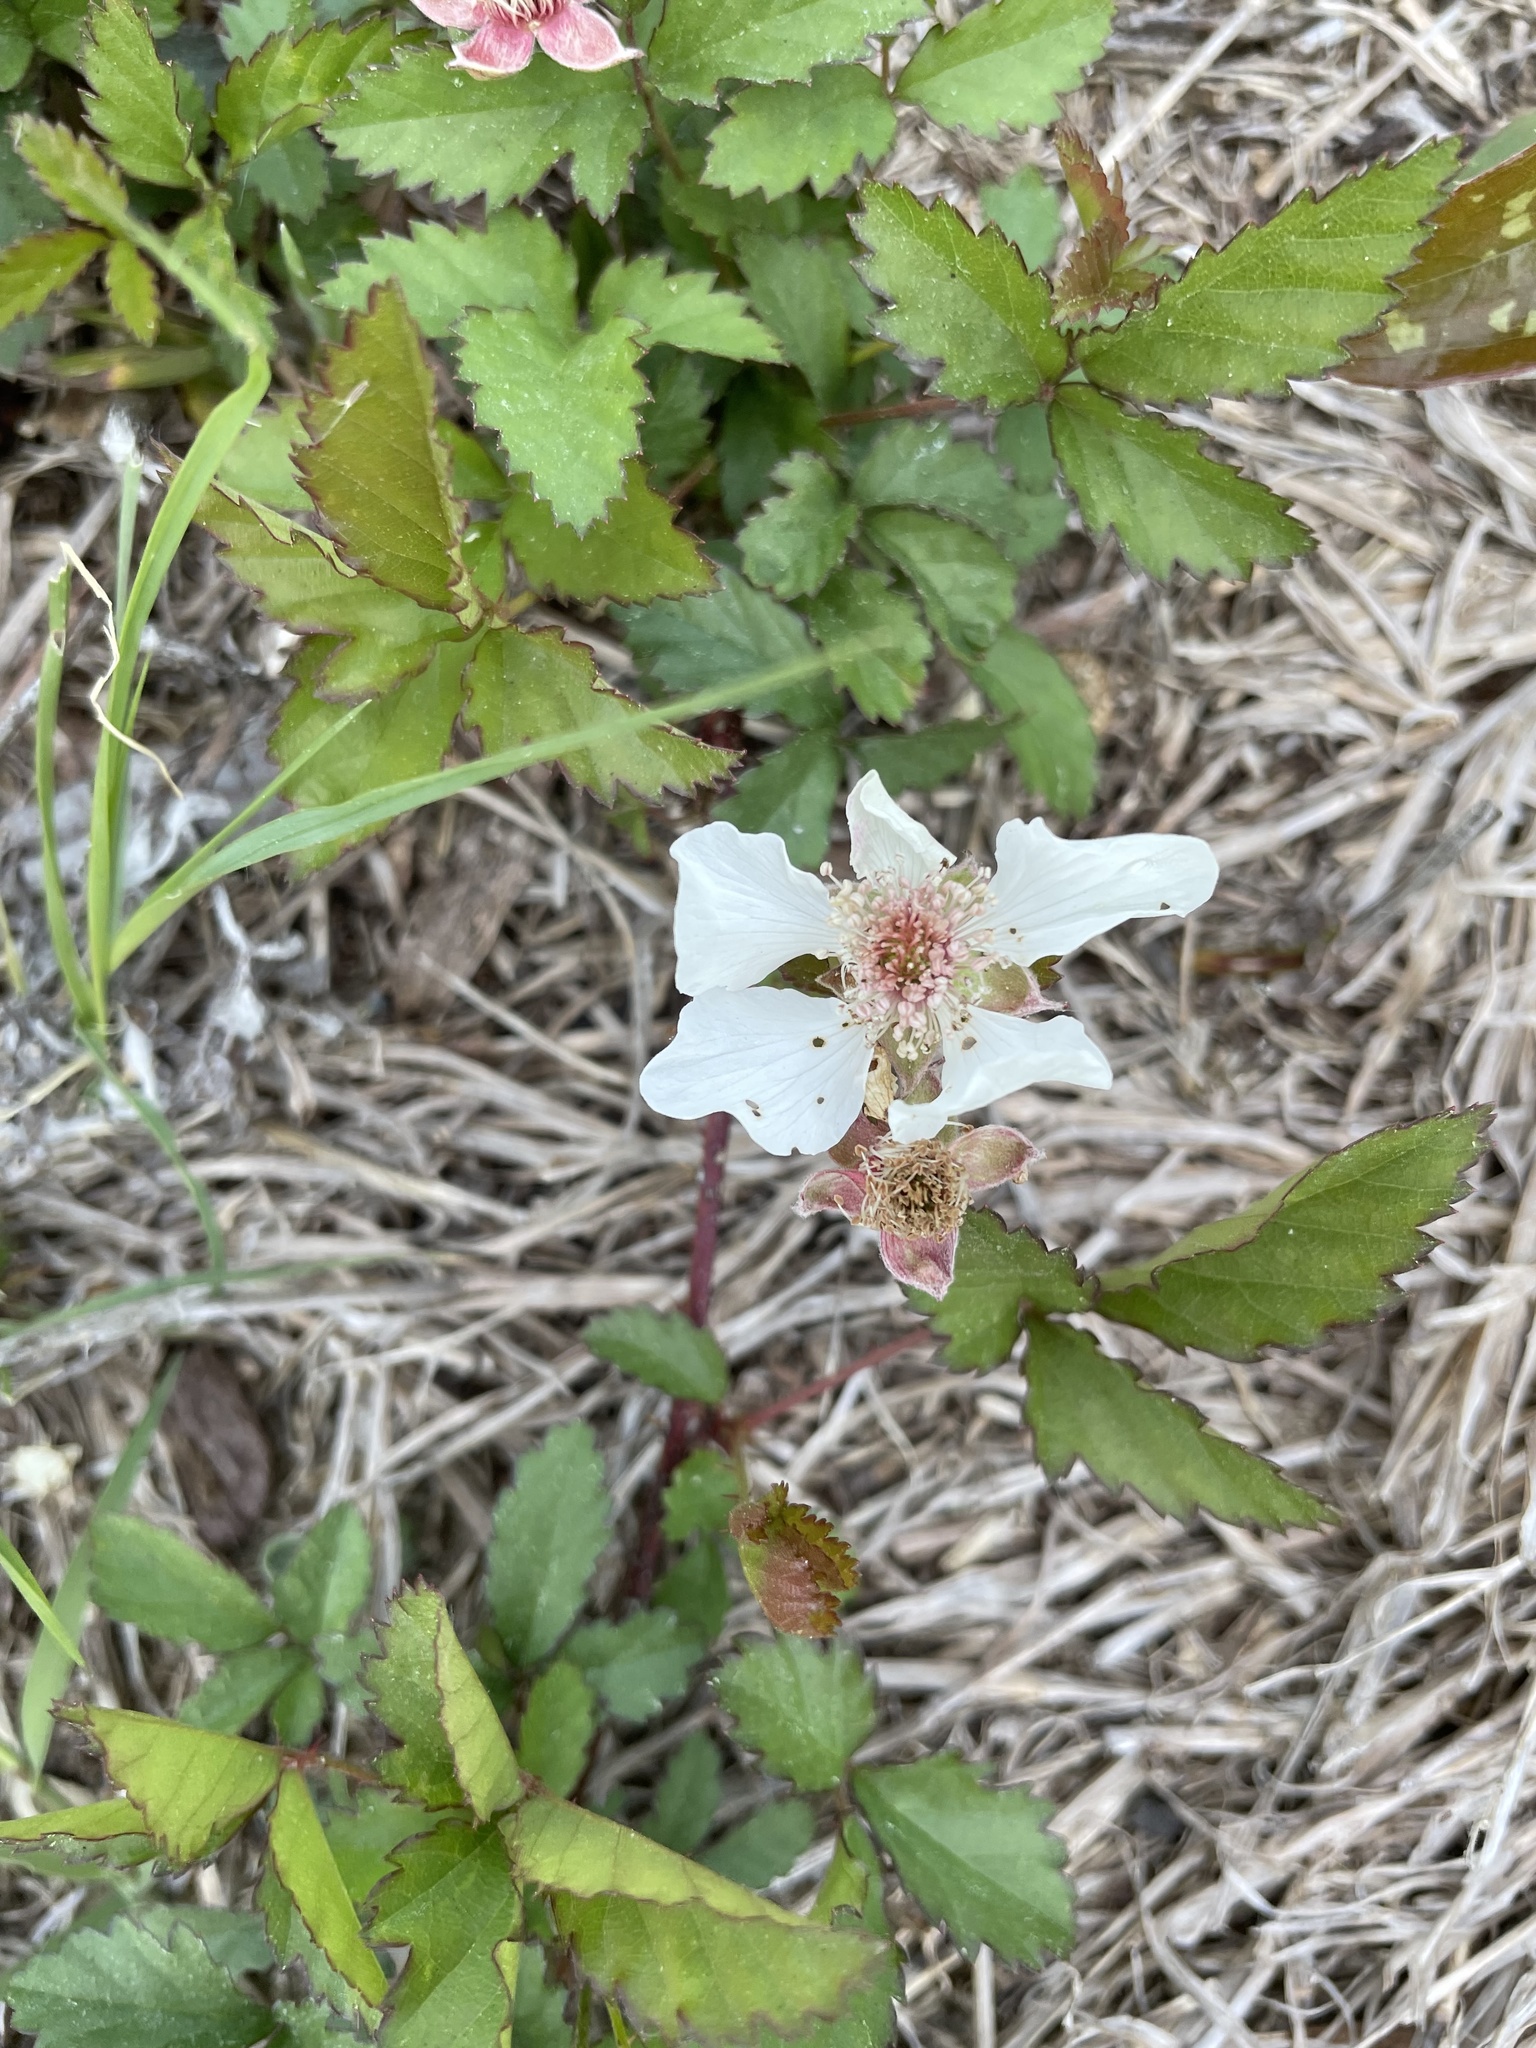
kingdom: Plantae
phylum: Tracheophyta
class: Magnoliopsida
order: Rosales
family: Rosaceae
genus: Rubus
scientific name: Rubus trivialis
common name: Southern dewberry
